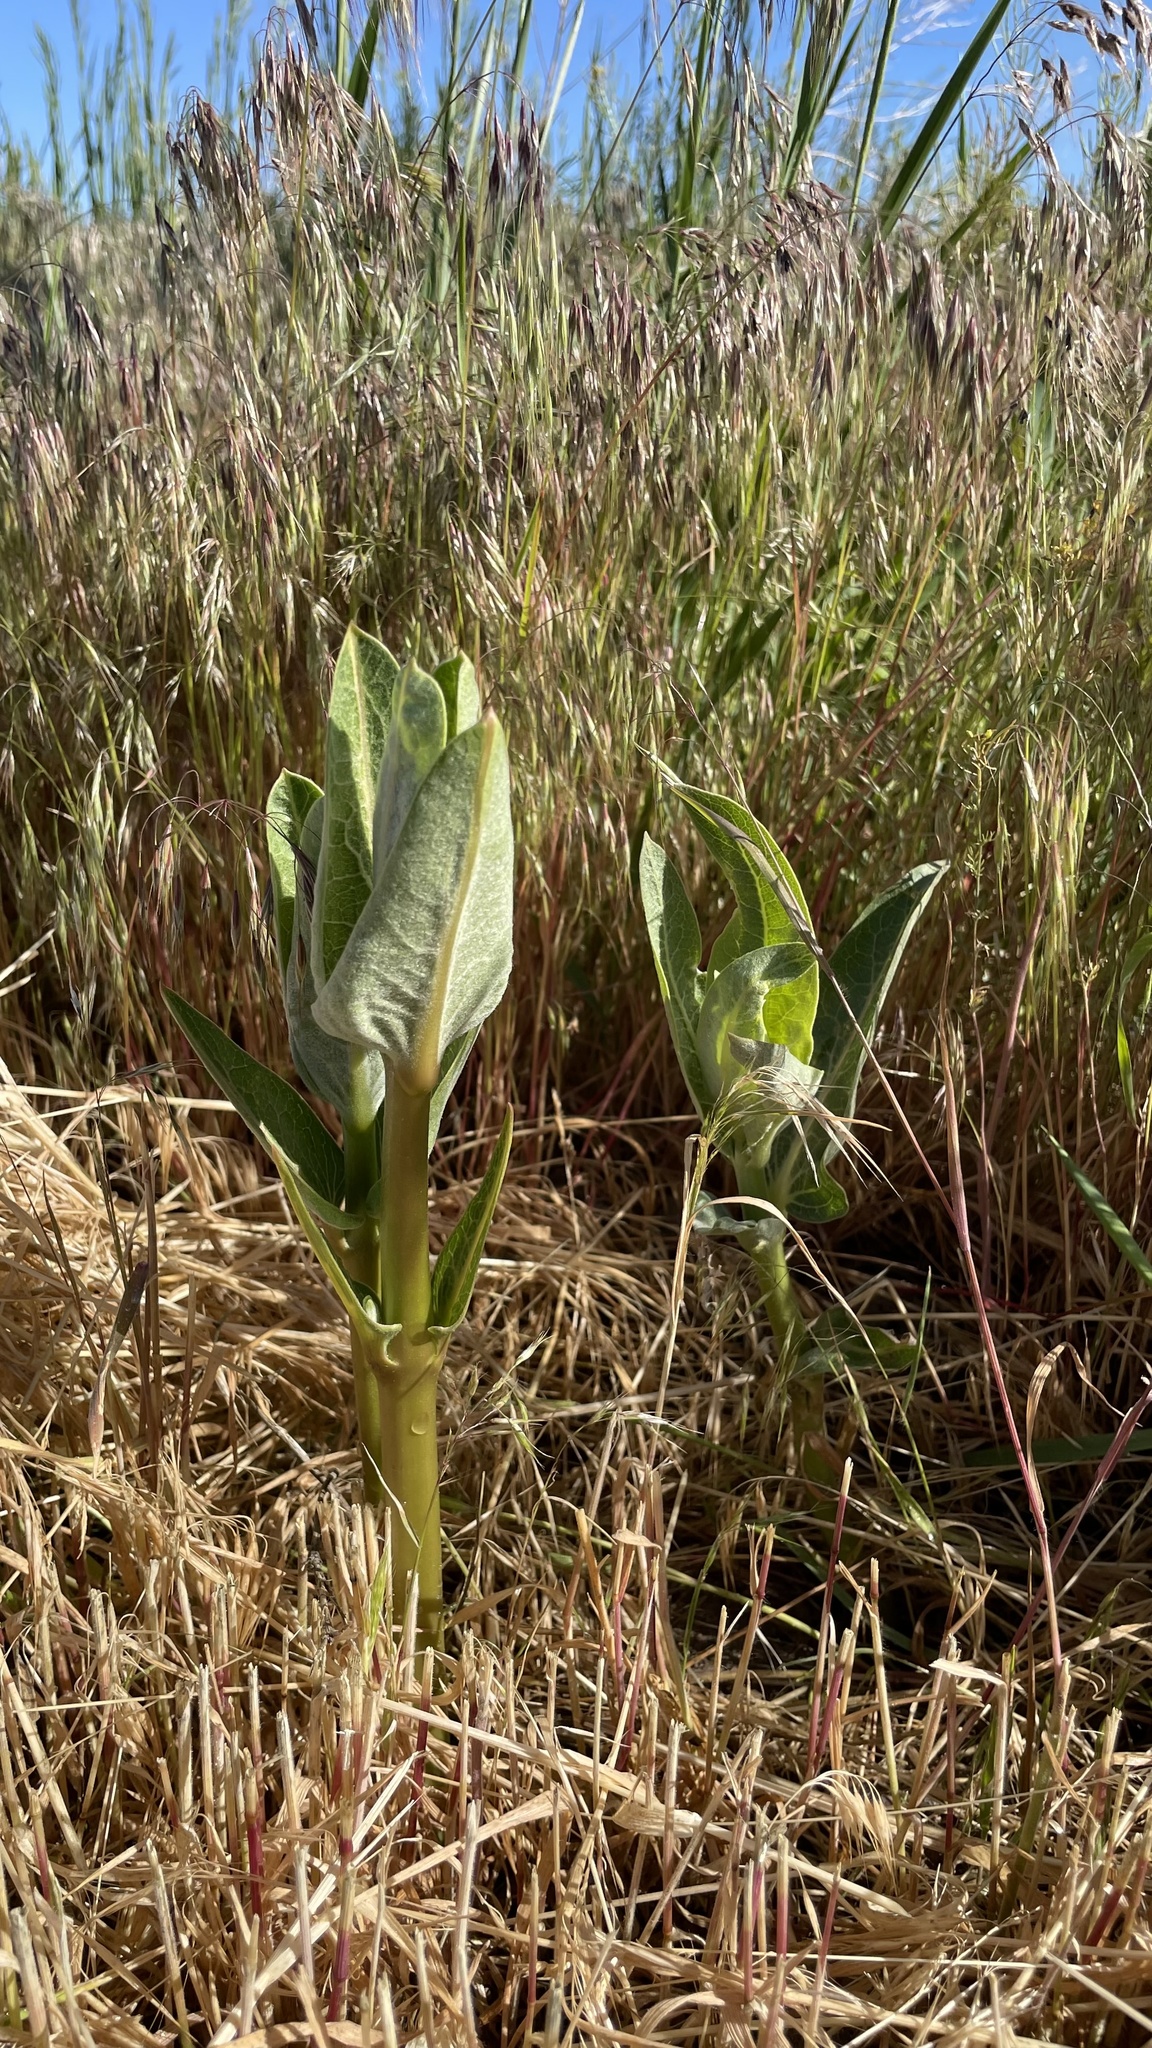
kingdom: Plantae
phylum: Tracheophyta
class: Magnoliopsida
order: Gentianales
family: Apocynaceae
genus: Asclepias
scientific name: Asclepias speciosa
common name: Showy milkweed
